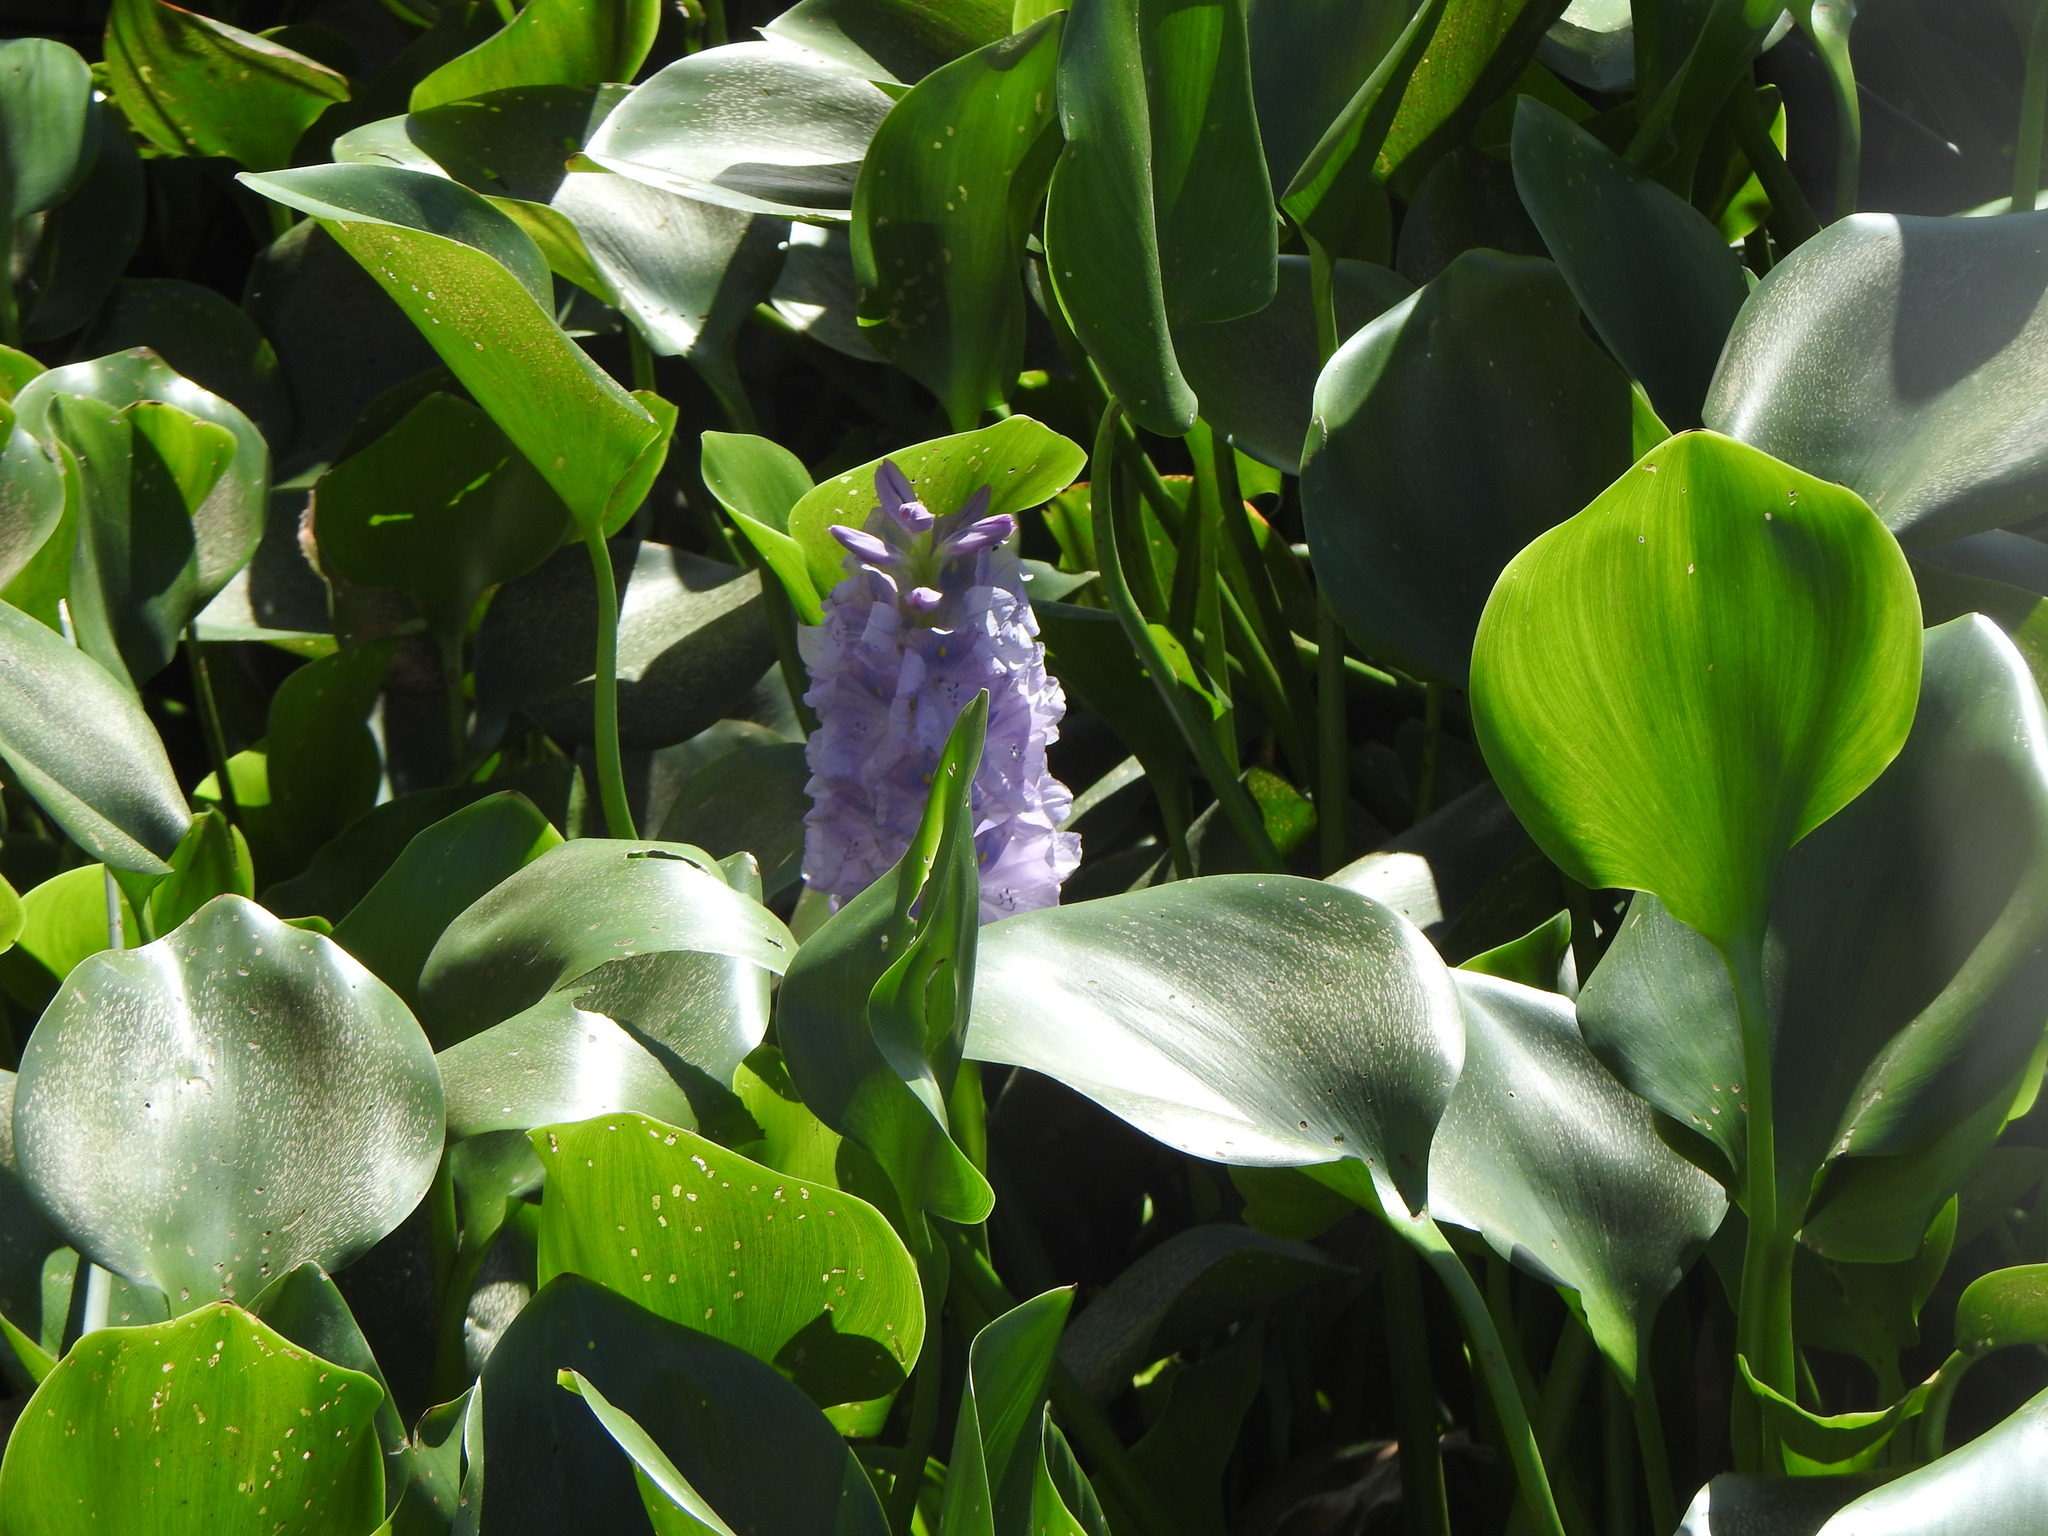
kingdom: Plantae
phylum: Tracheophyta
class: Liliopsida
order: Commelinales
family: Pontederiaceae
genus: Pontederia
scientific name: Pontederia crassipes
